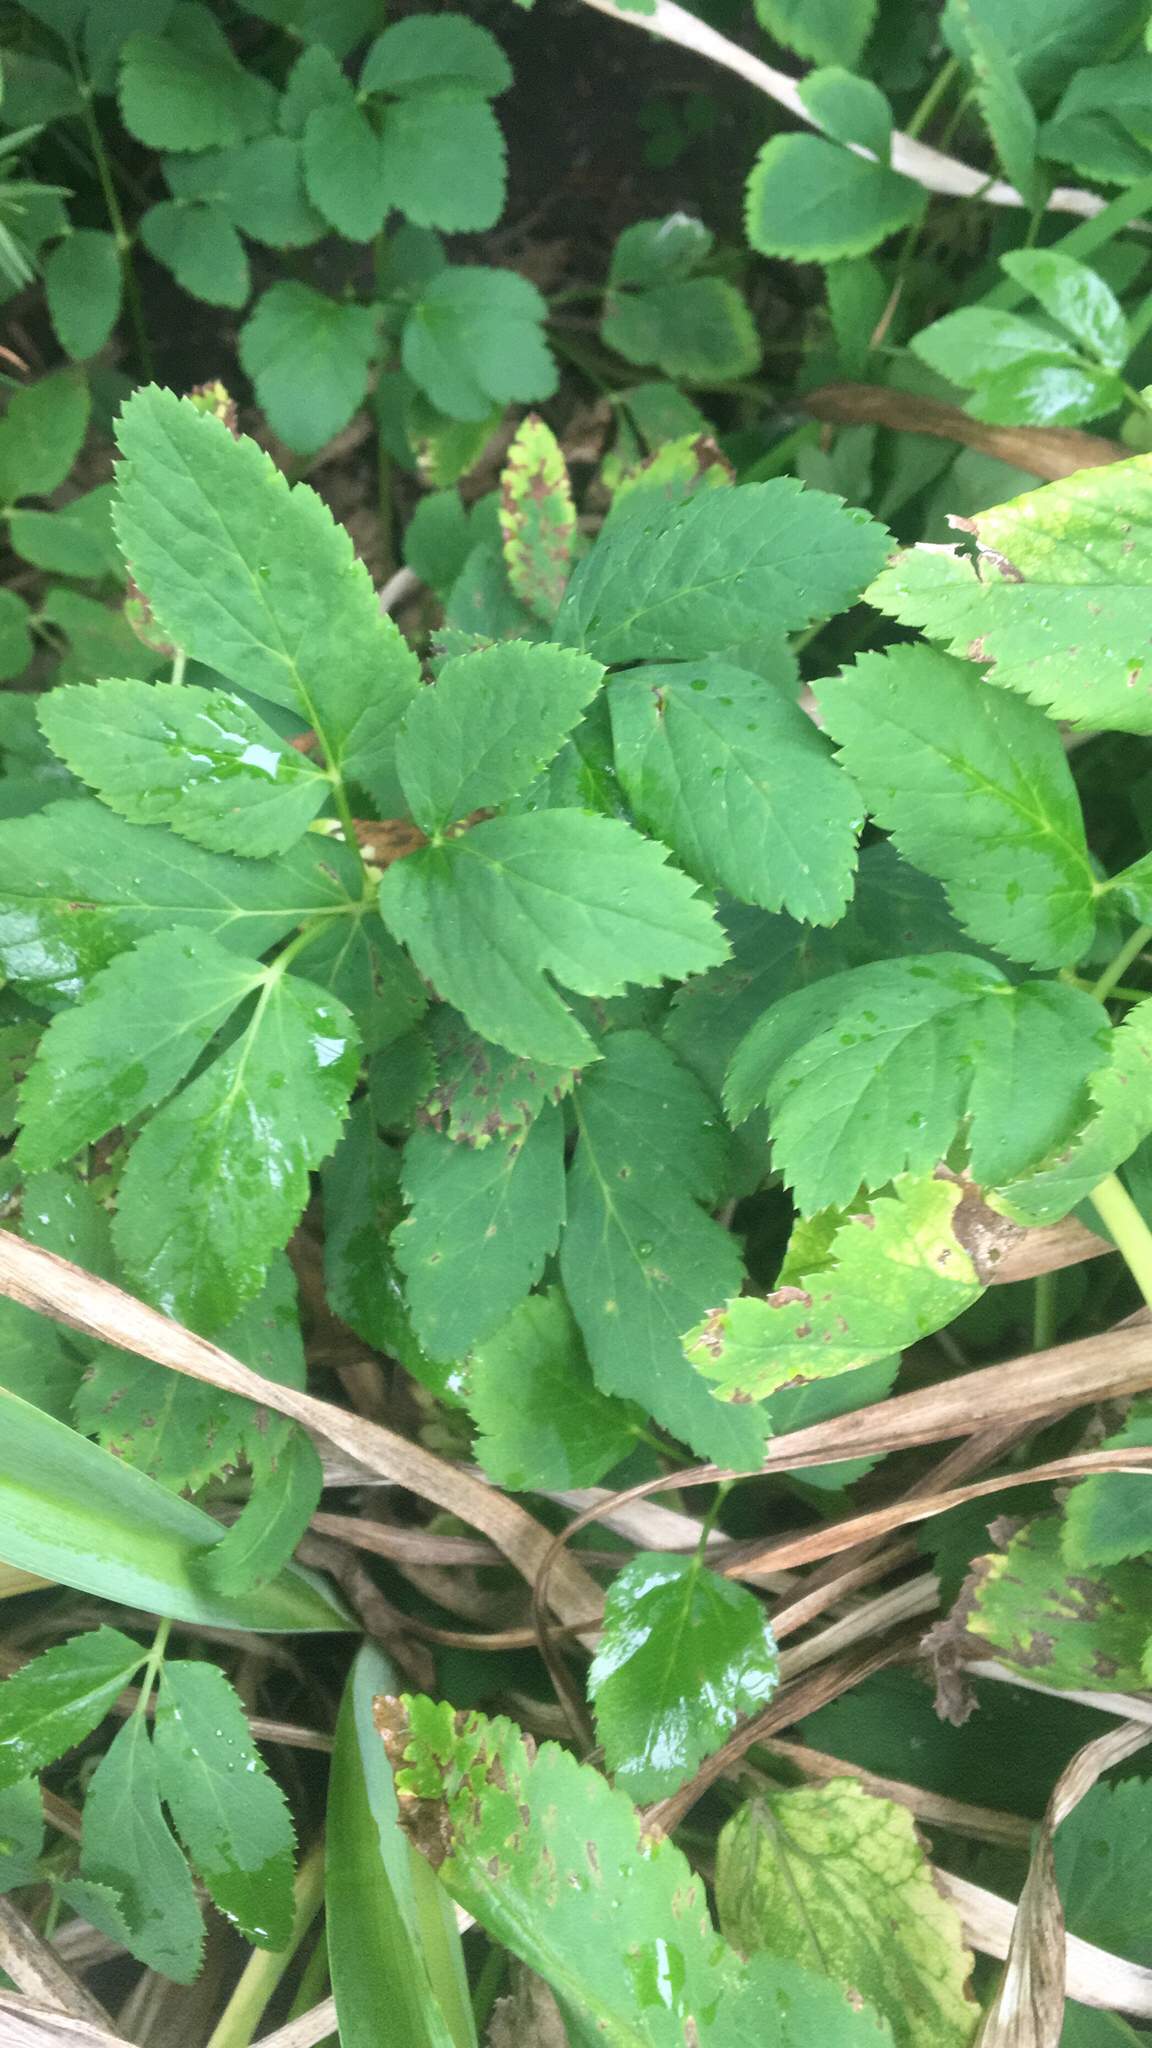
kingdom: Plantae
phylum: Tracheophyta
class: Magnoliopsida
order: Apiales
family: Apiaceae
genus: Aegopodium
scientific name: Aegopodium podagraria
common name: Ground-elder
